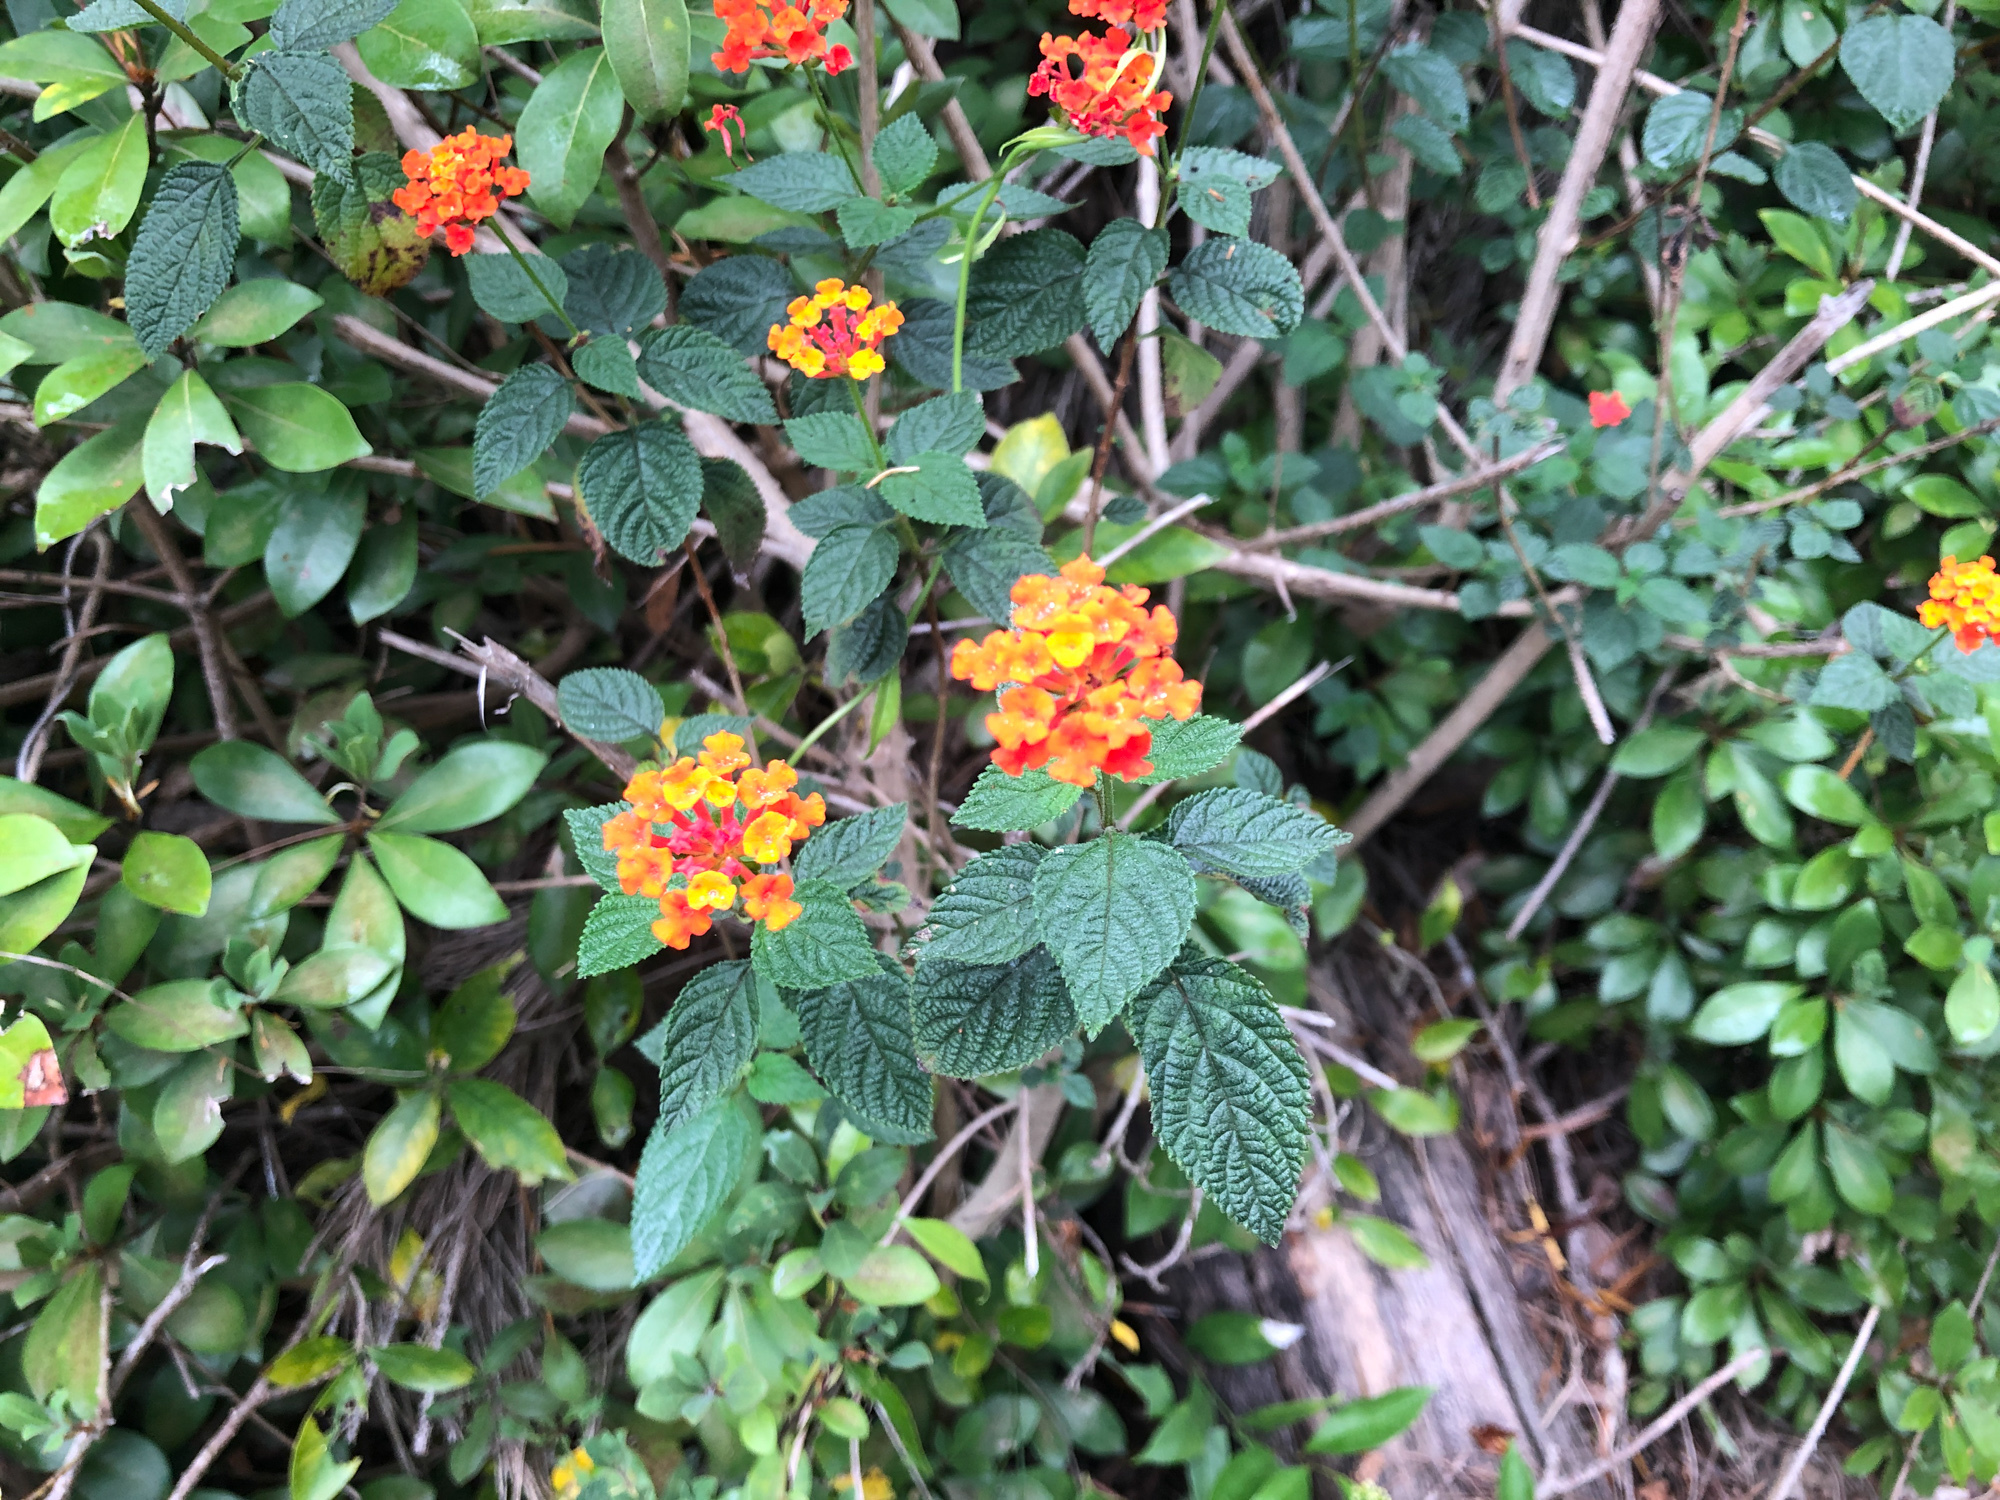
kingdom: Plantae
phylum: Tracheophyta
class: Magnoliopsida
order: Lamiales
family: Verbenaceae
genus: Lantana
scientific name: Lantana camara
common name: Lantana
